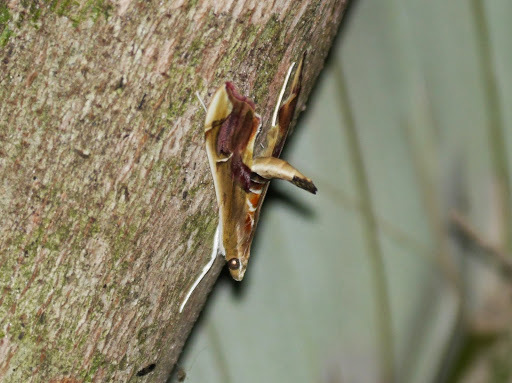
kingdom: Animalia
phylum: Arthropoda
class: Insecta
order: Lepidoptera
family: Crambidae
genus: Agathodes
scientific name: Agathodes musivalis
